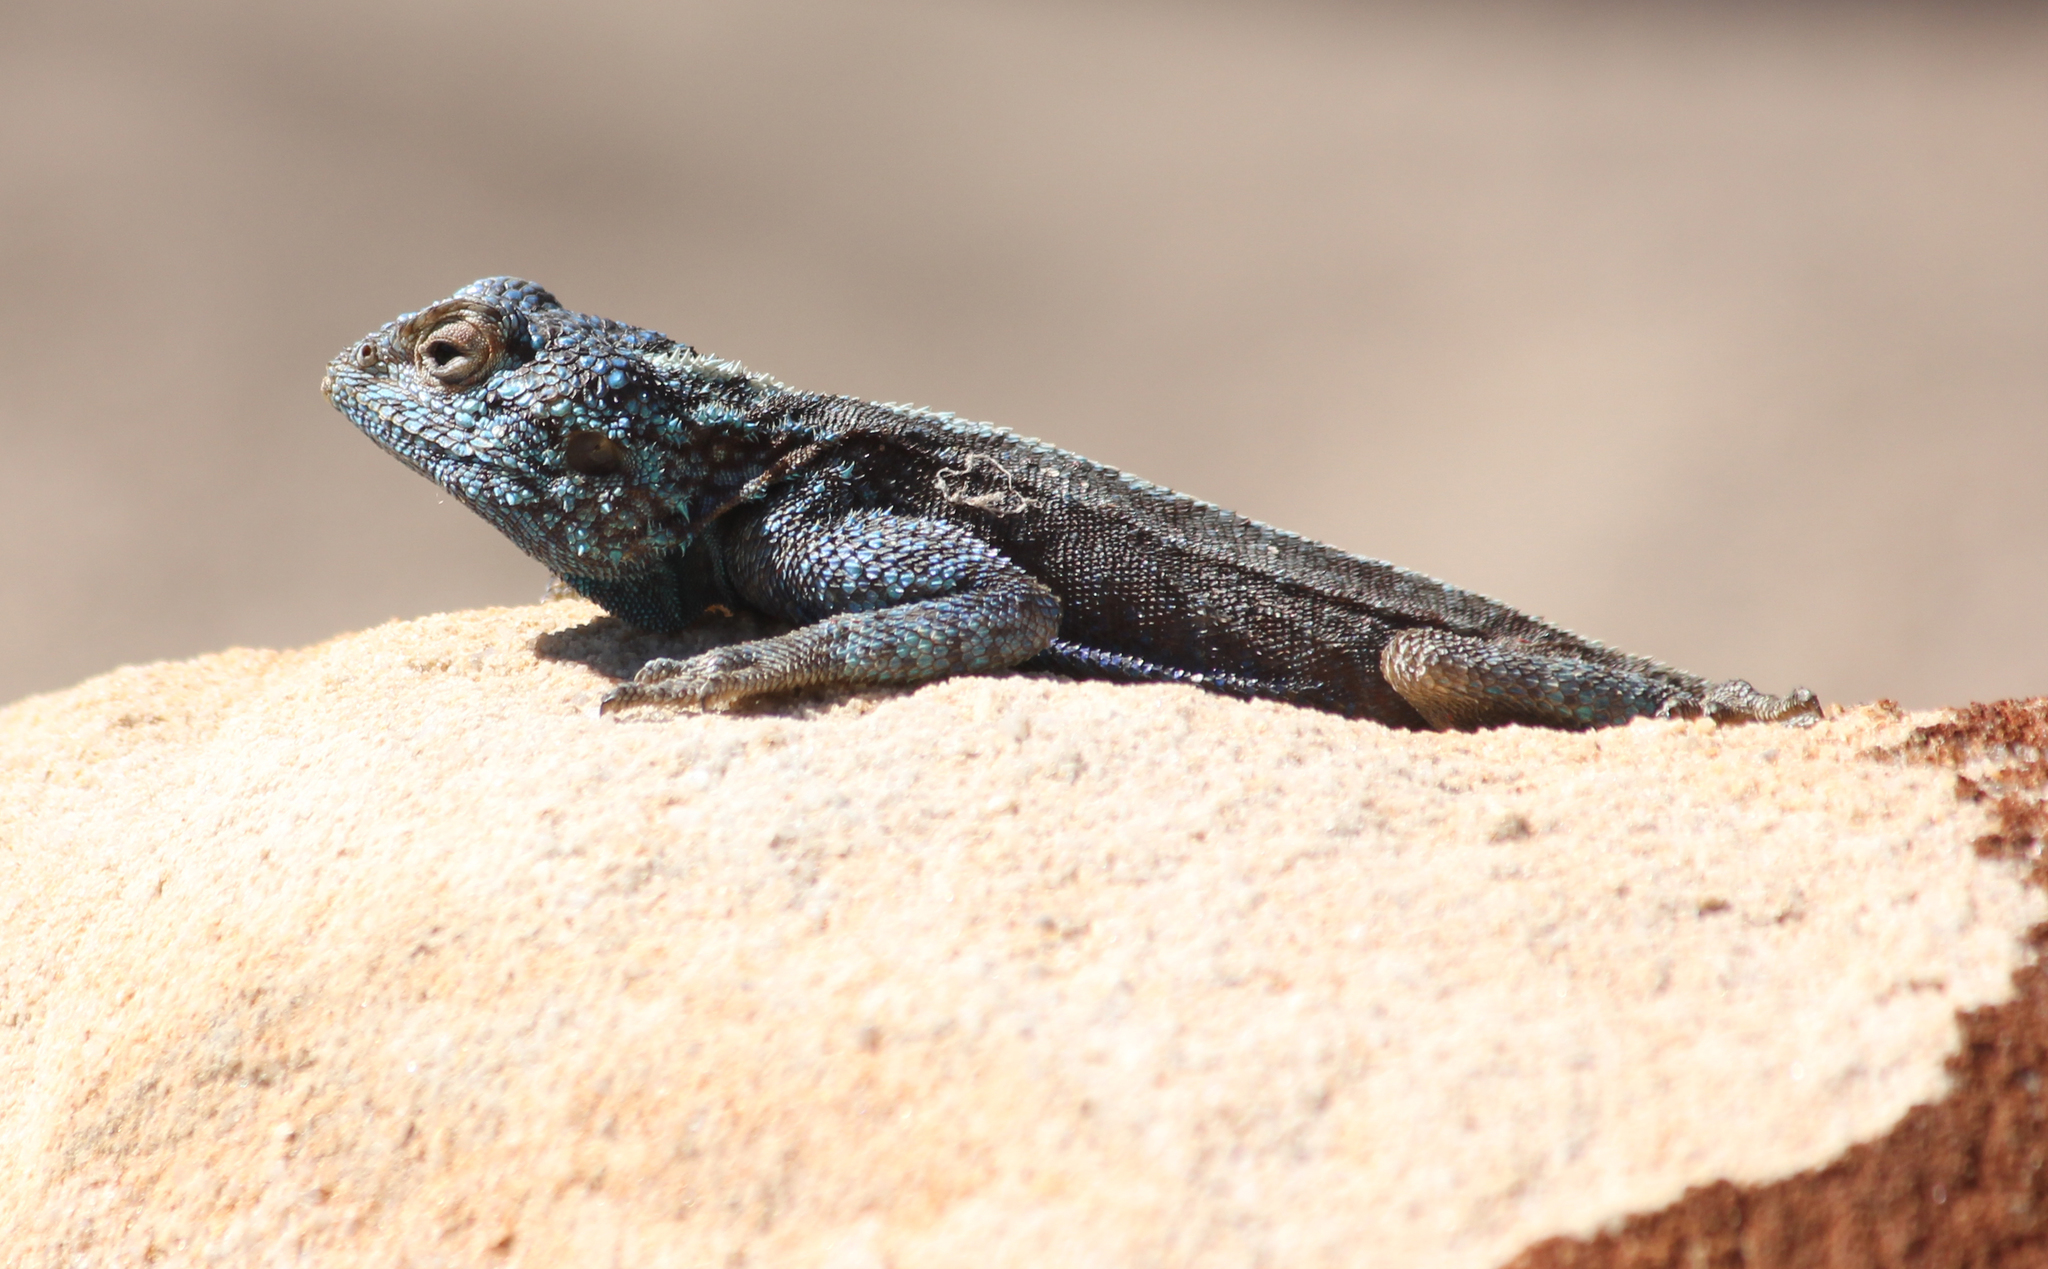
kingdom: Animalia
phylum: Chordata
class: Squamata
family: Agamidae
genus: Agama
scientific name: Agama atra
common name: Southern african rock agama
